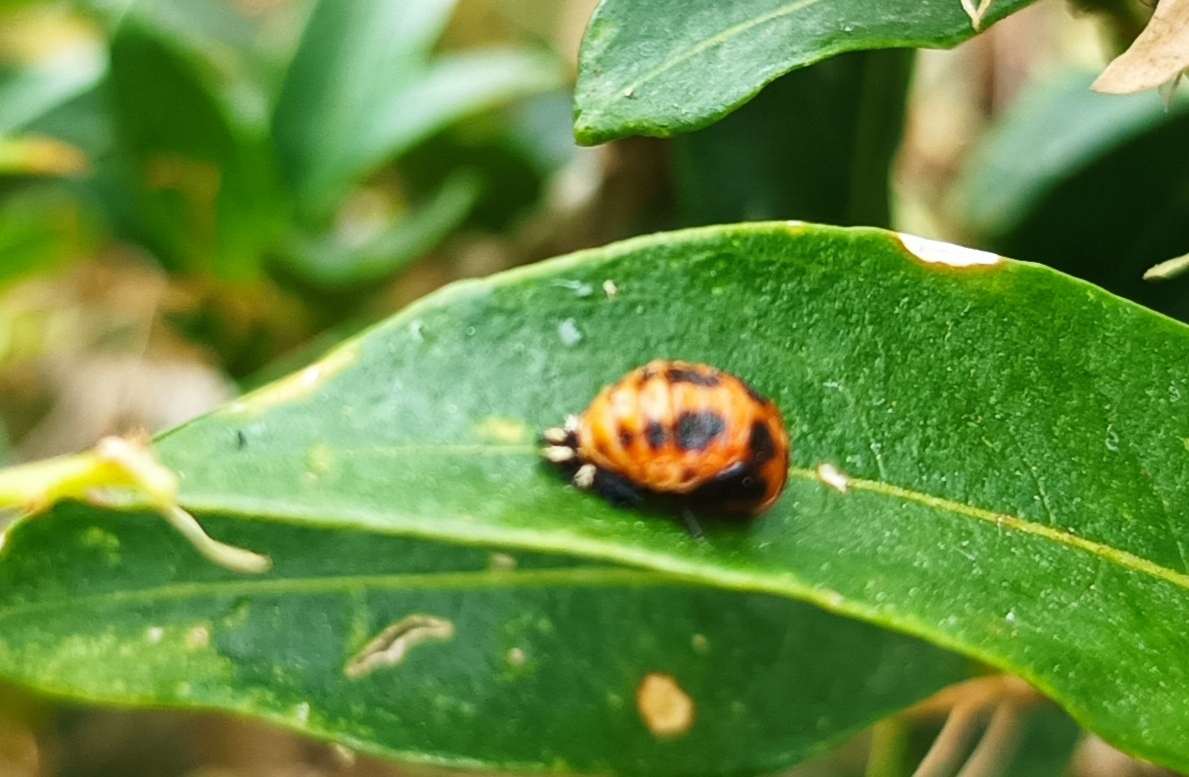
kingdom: Animalia
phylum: Arthropoda
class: Insecta
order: Coleoptera
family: Coccinellidae
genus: Harmonia
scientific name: Harmonia axyridis
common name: Harlequin ladybird
